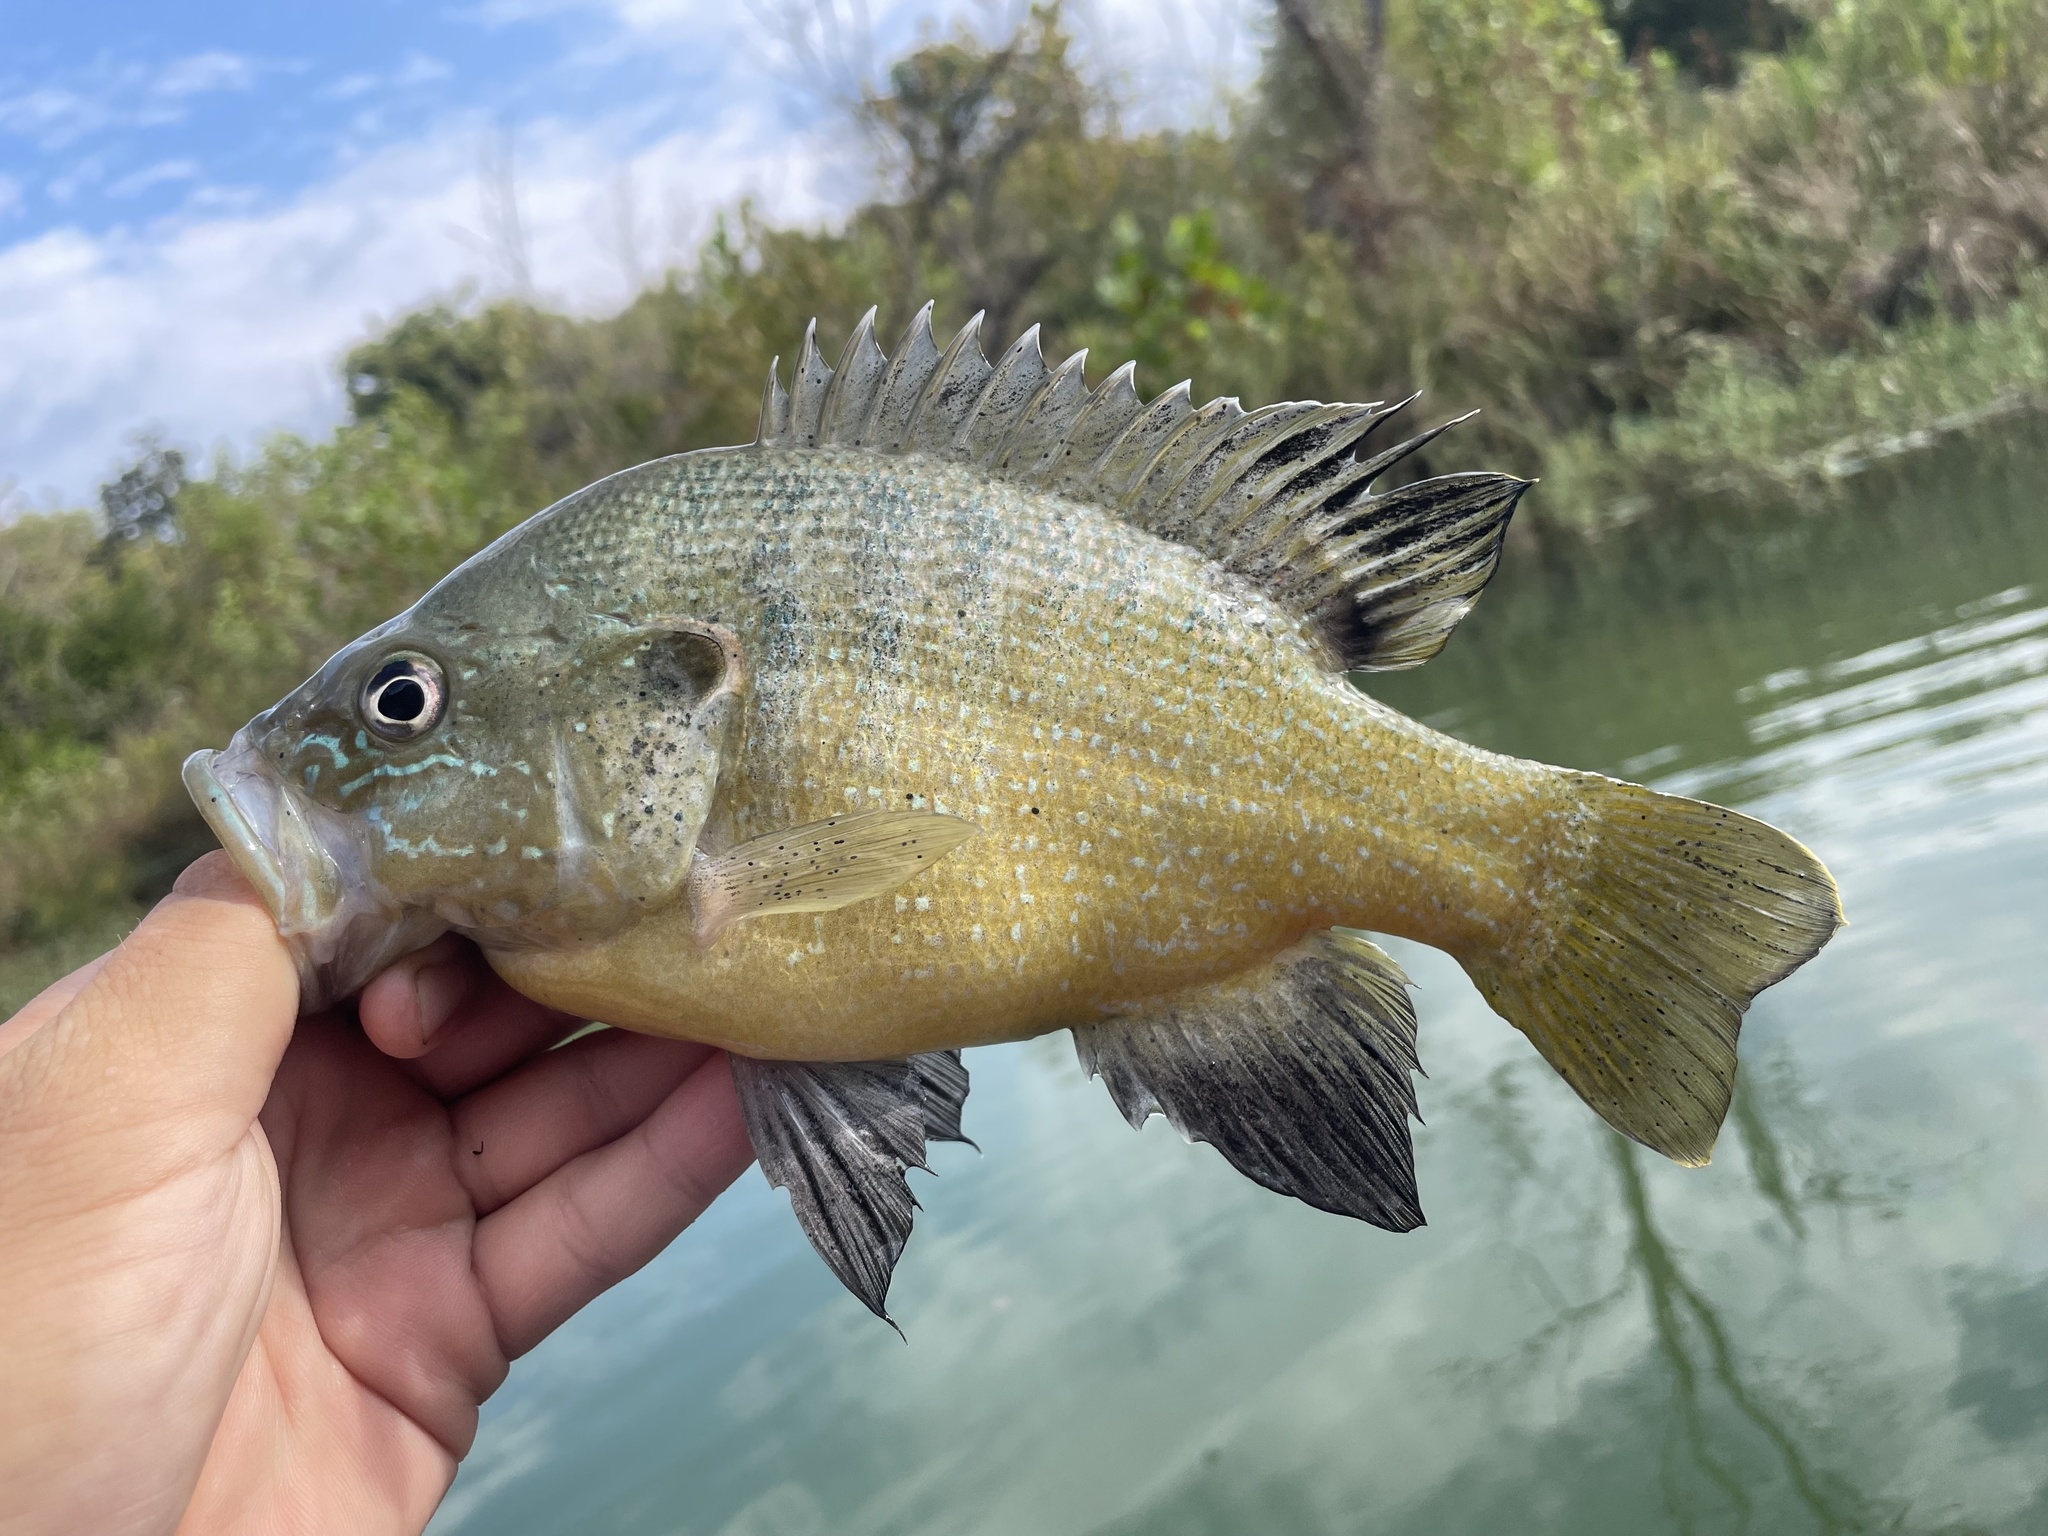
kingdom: Animalia
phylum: Chordata
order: Perciformes
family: Centrarchidae
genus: Lepomis
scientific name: Lepomis cyanellus
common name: Green sunfish
